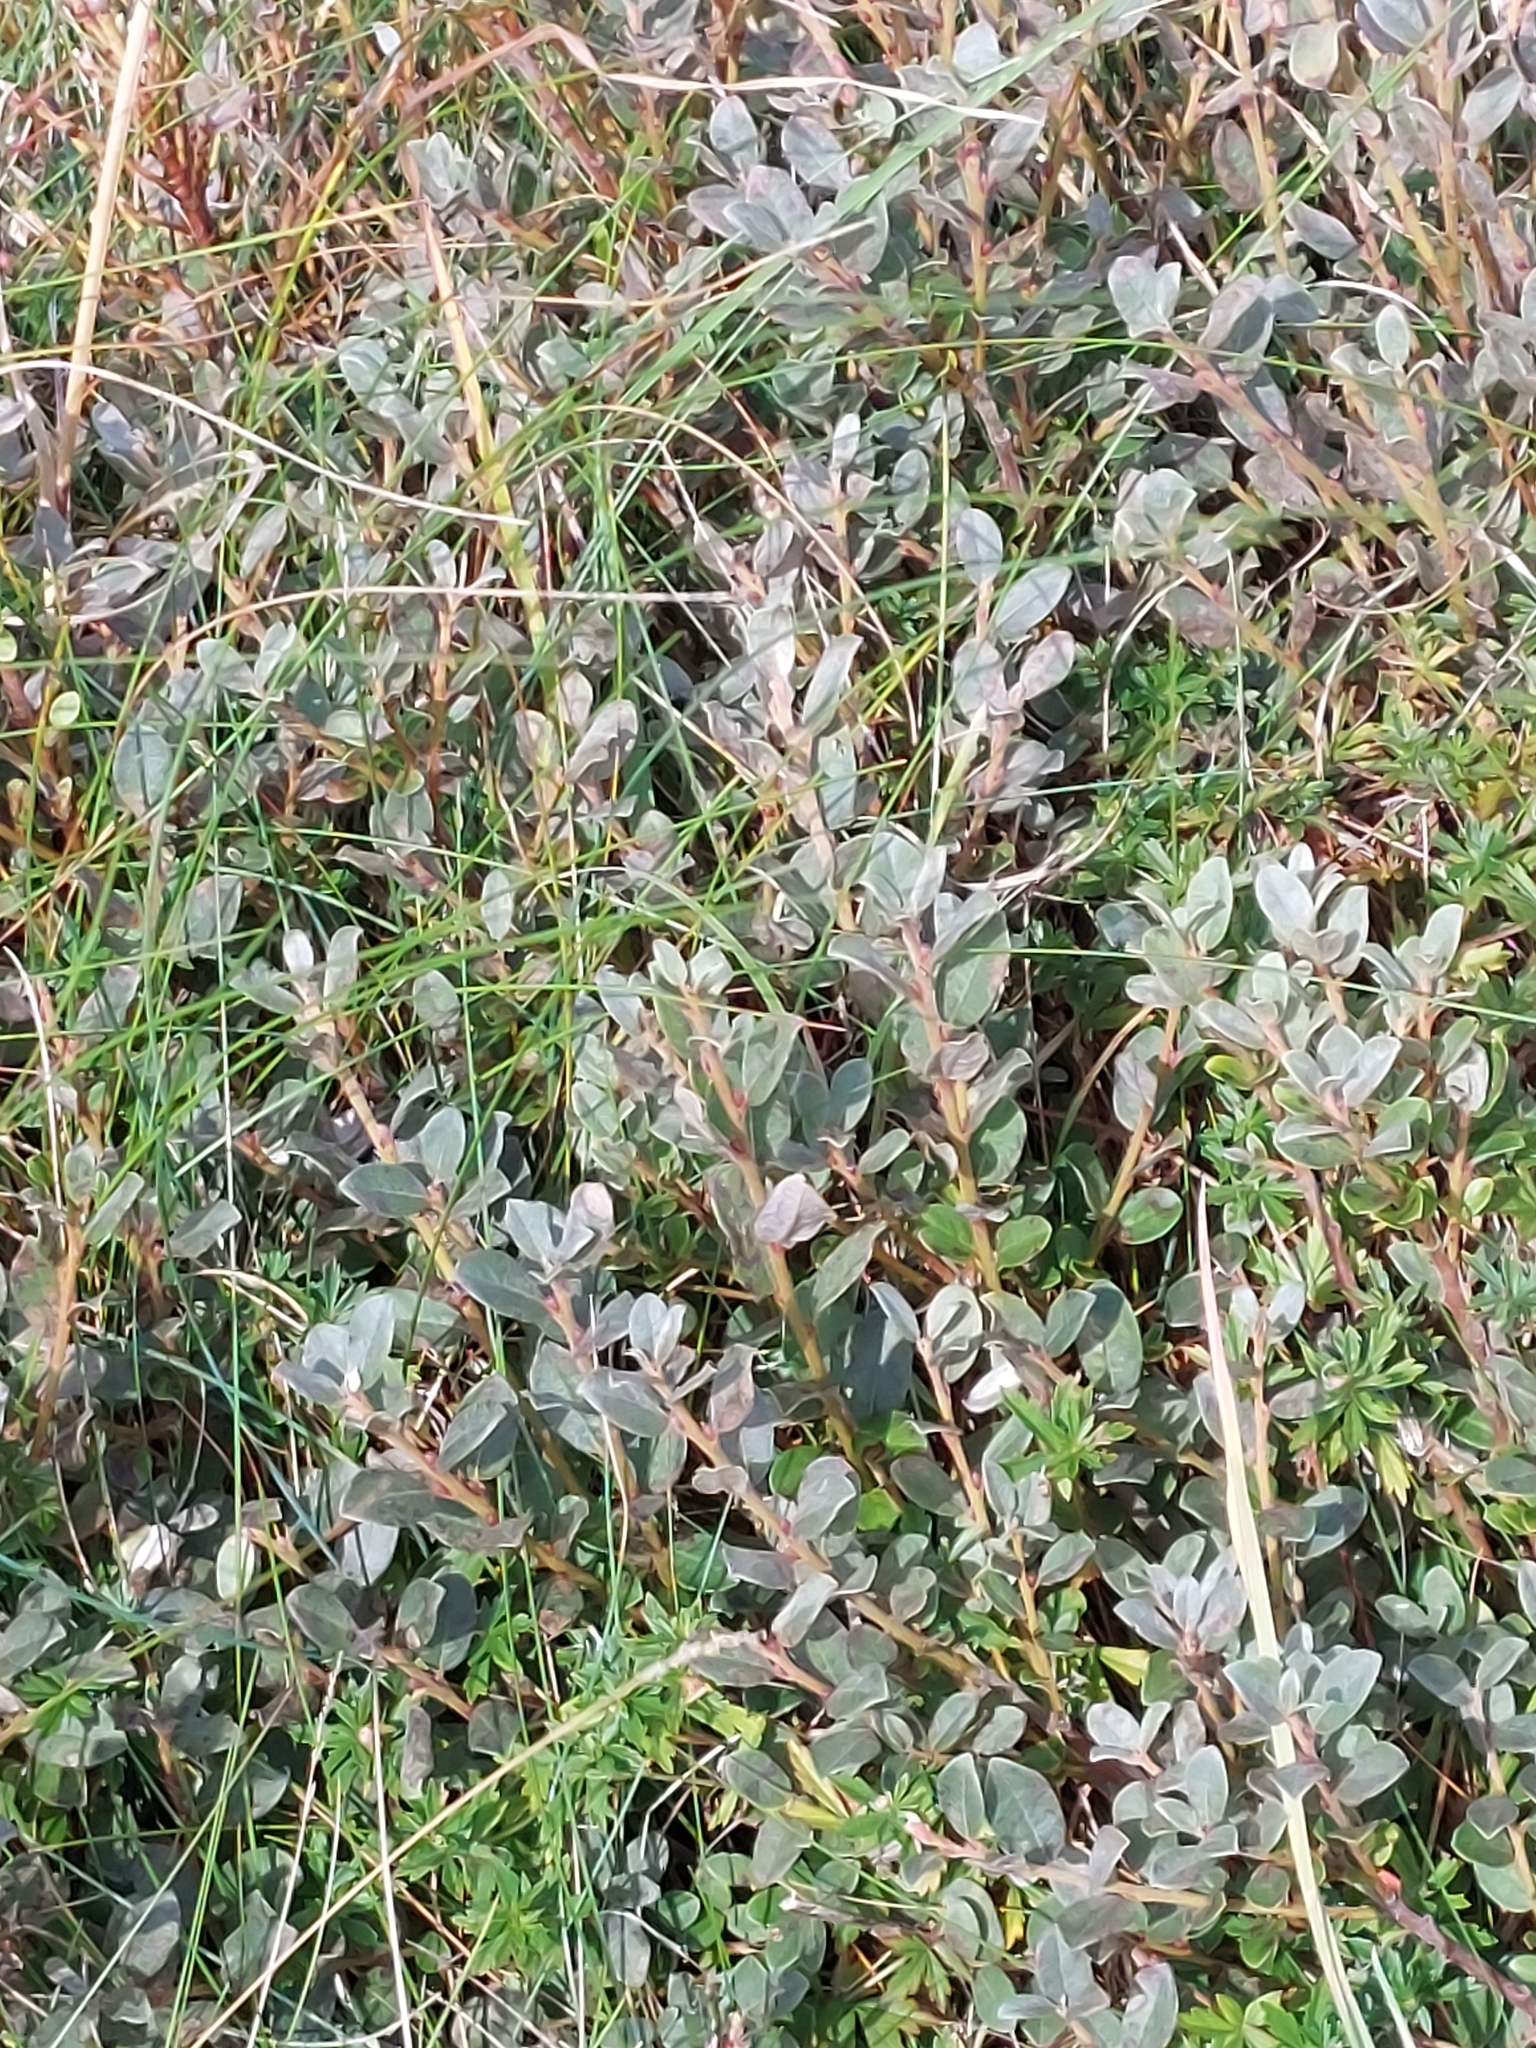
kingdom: Plantae
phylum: Tracheophyta
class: Magnoliopsida
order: Malpighiales
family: Salicaceae
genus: Salix
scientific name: Salix repens
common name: Creeping willow
